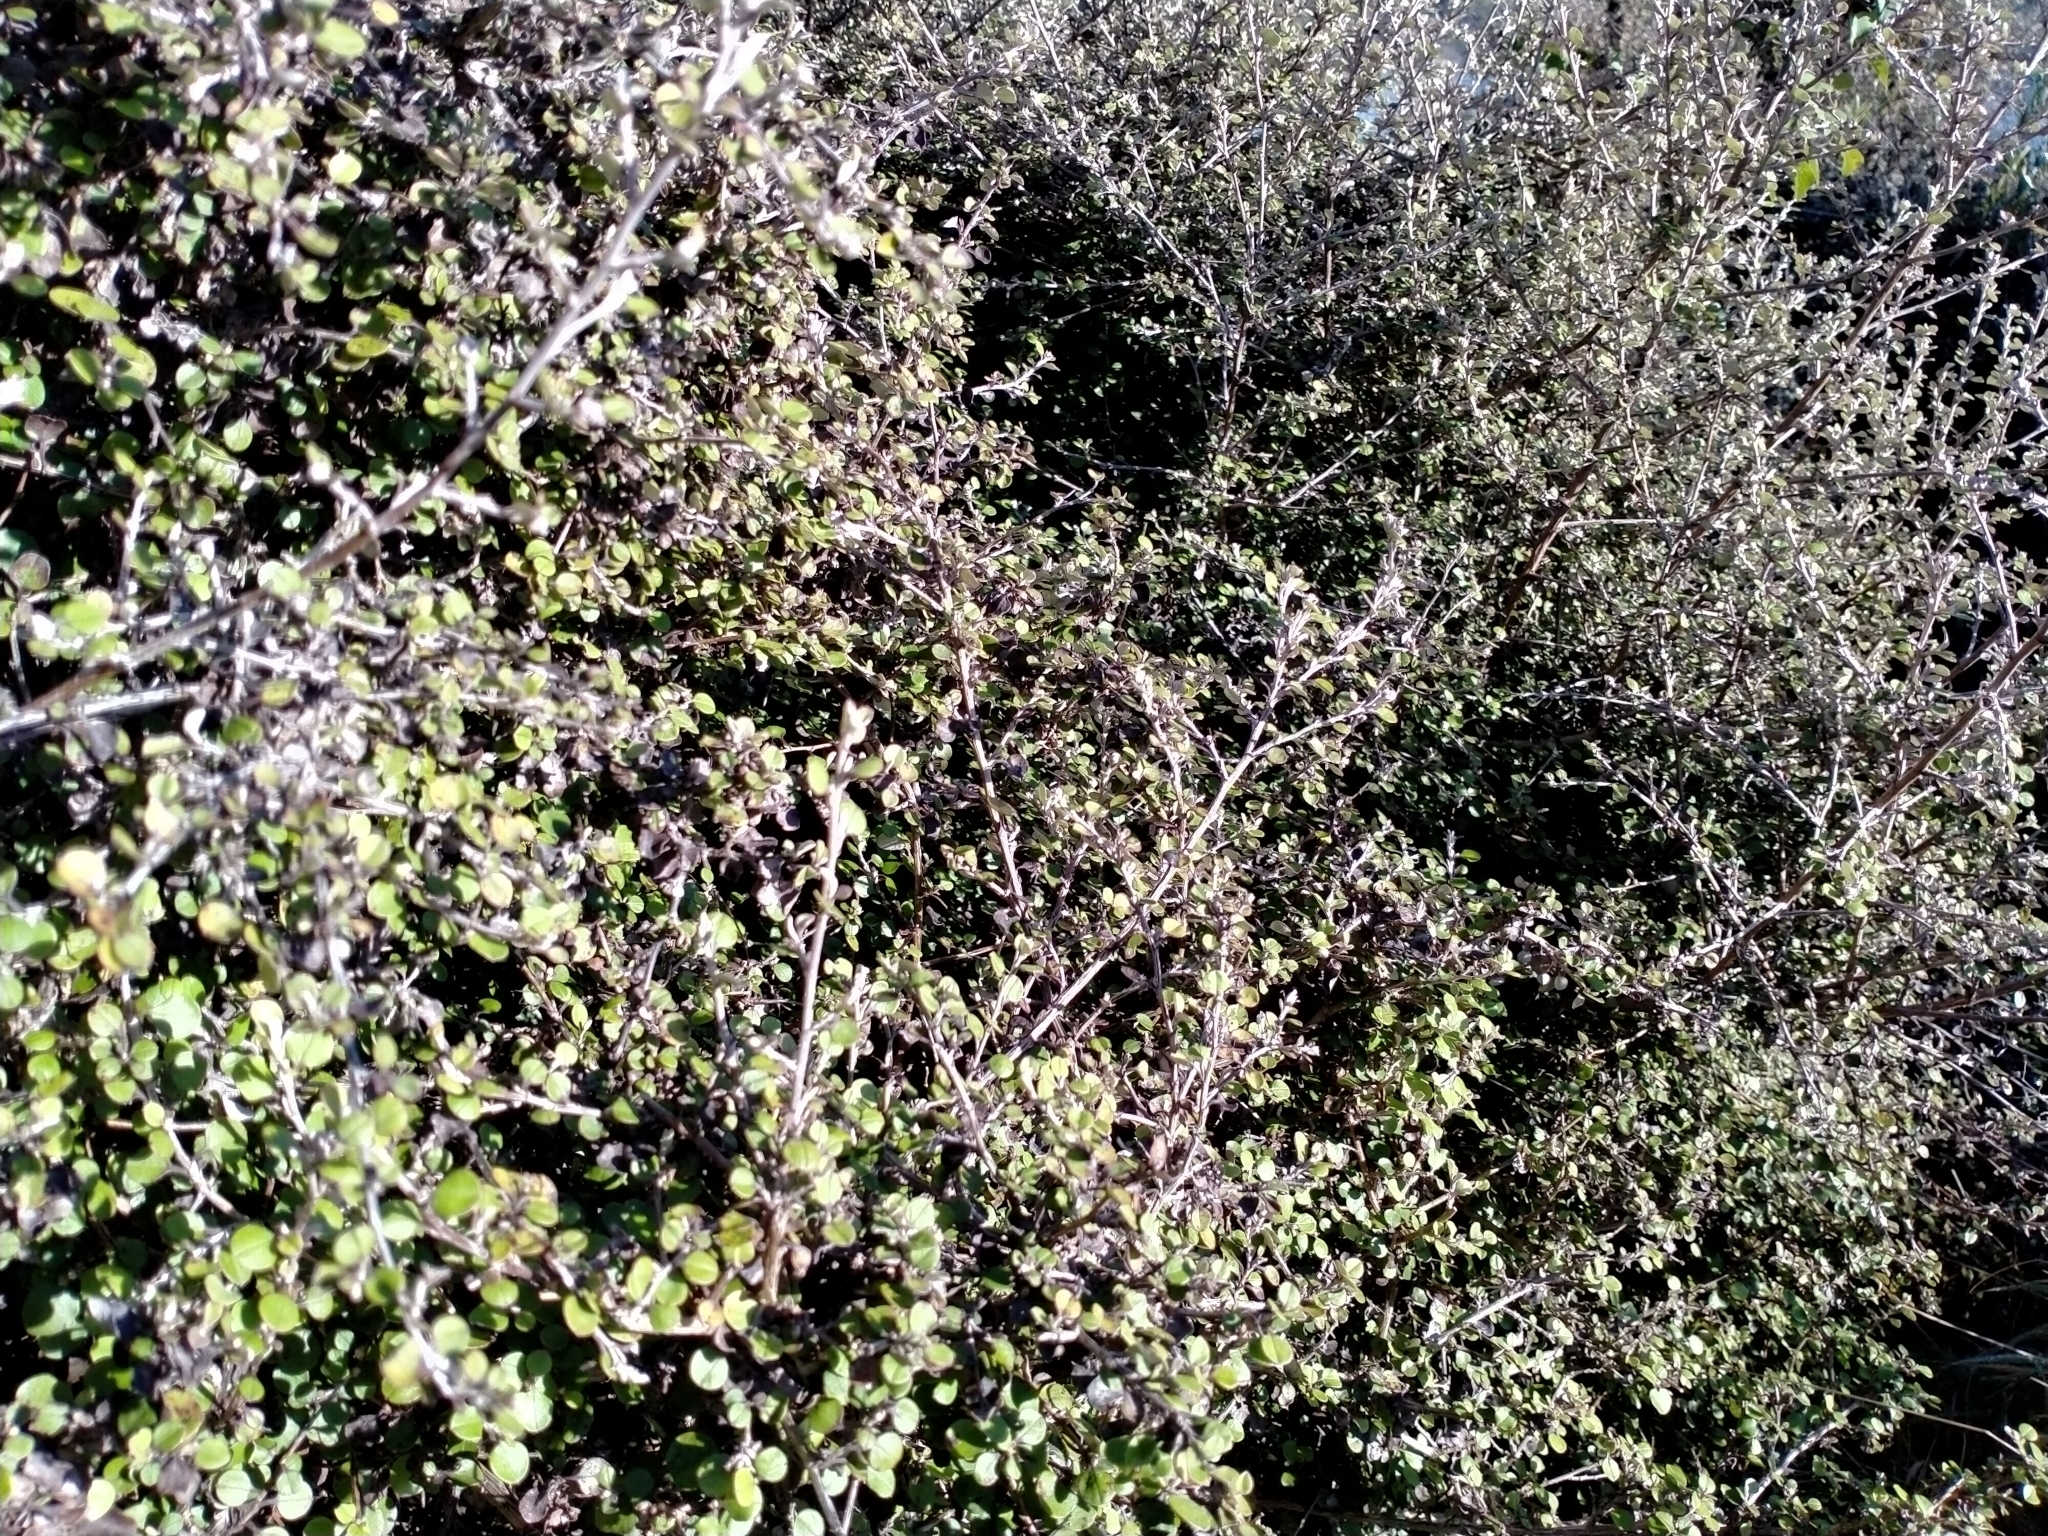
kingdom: Plantae
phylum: Tracheophyta
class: Magnoliopsida
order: Asterales
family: Asteraceae
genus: Ozothamnus
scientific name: Ozothamnus glomeratus
